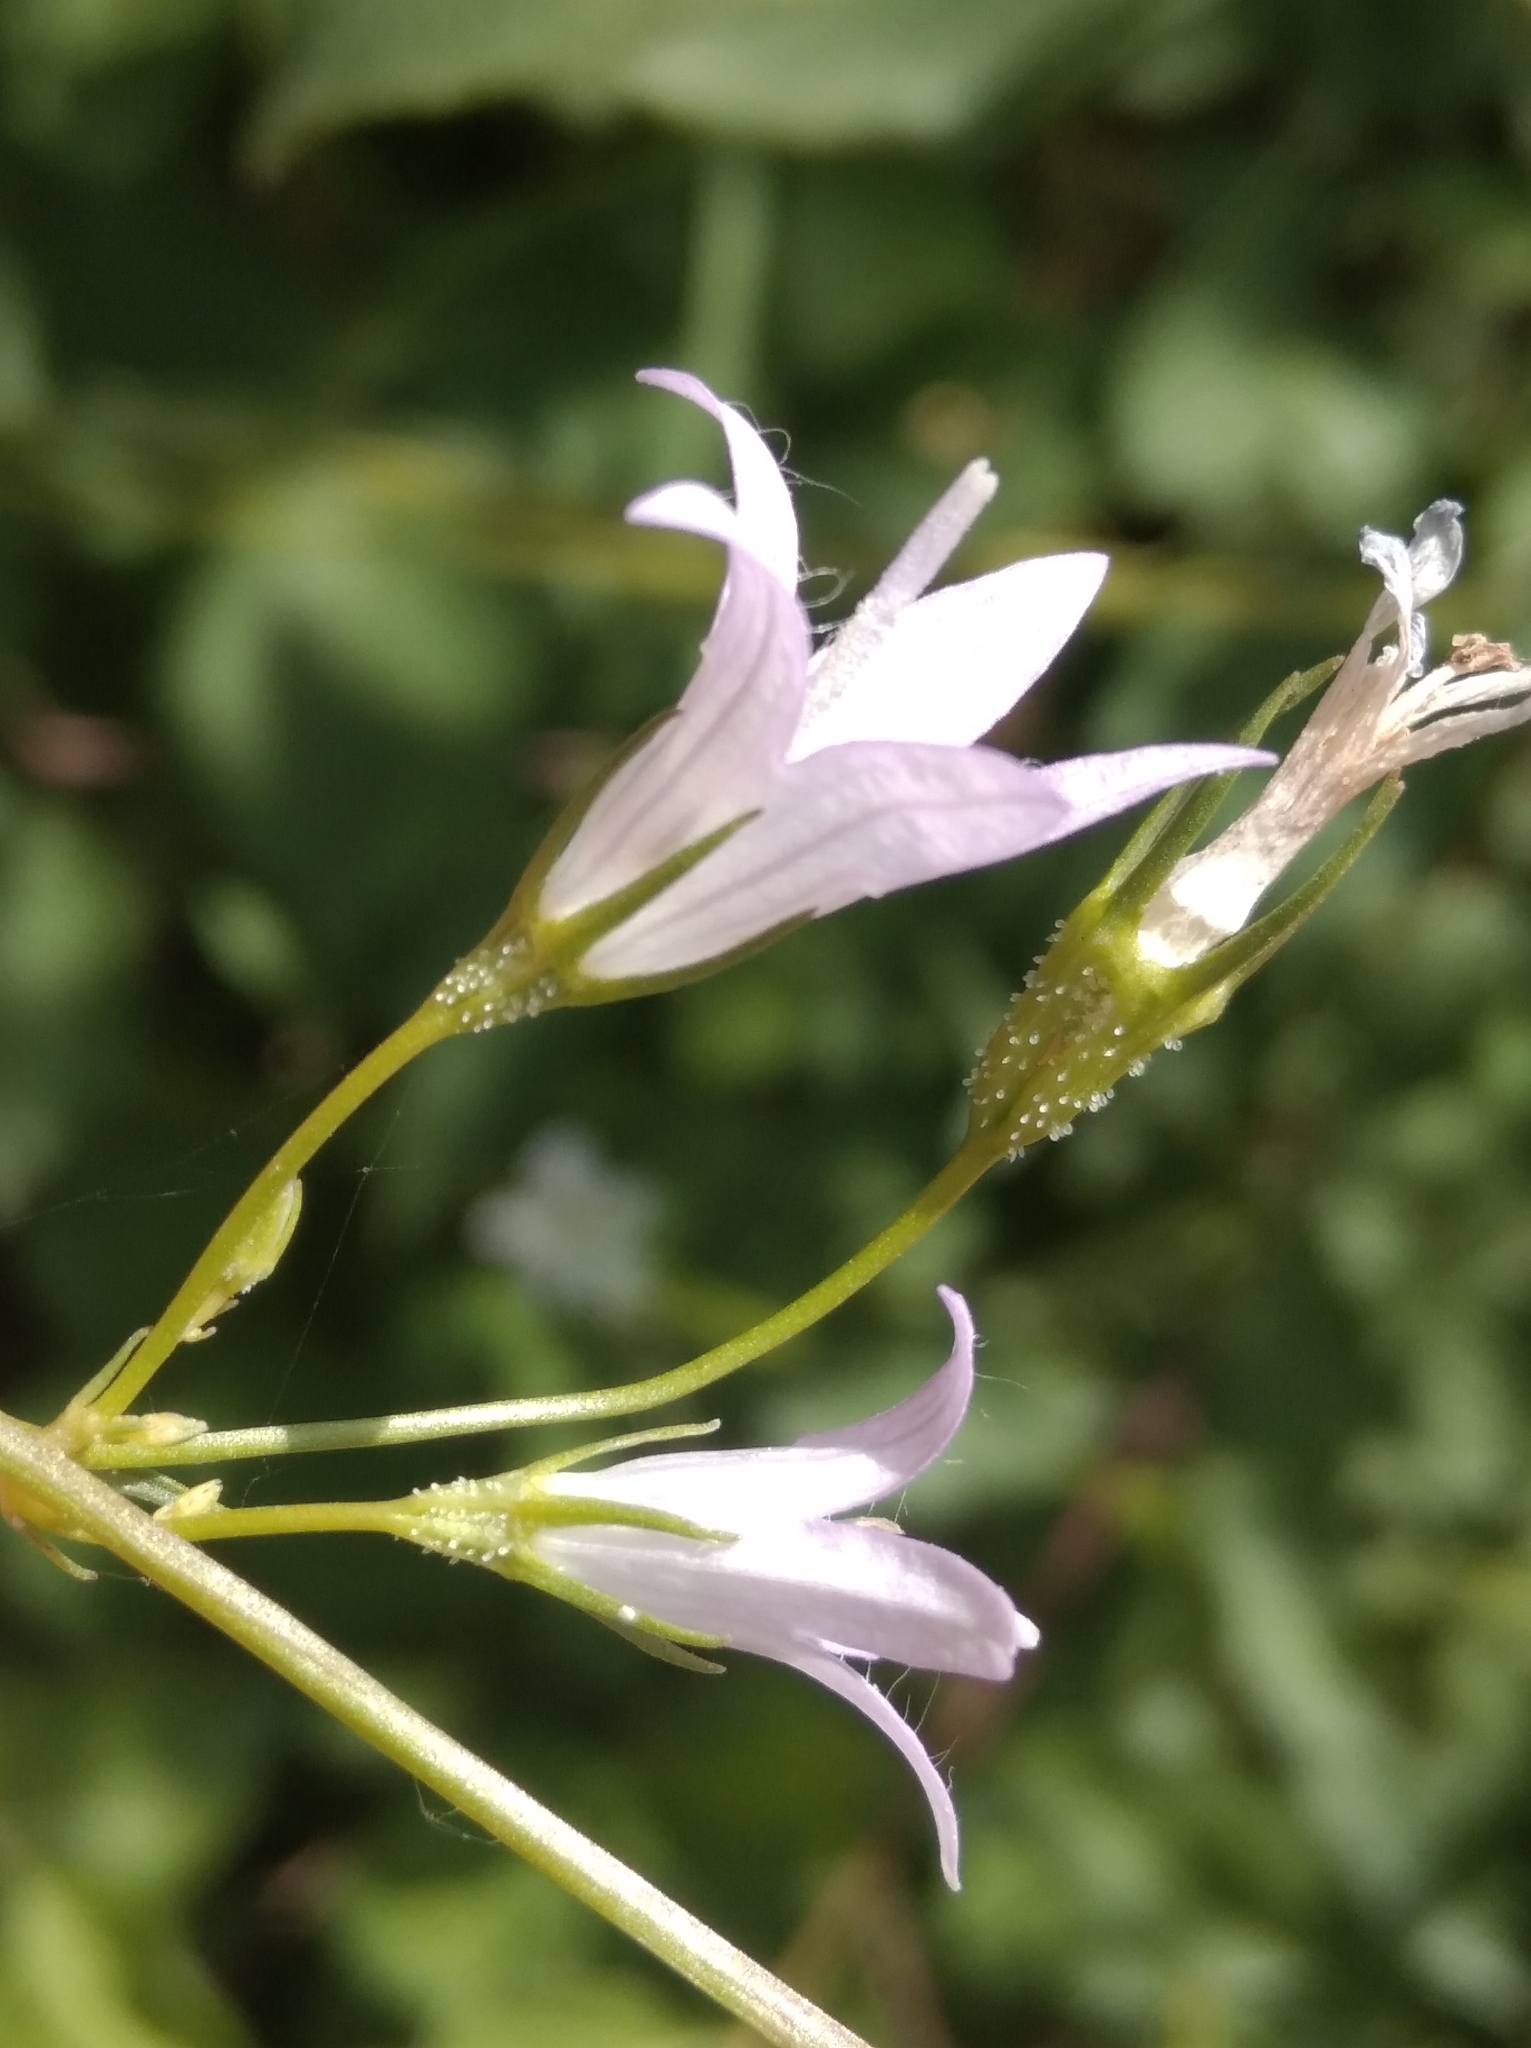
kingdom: Plantae
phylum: Tracheophyta
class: Magnoliopsida
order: Asterales
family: Campanulaceae
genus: Campanula
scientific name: Campanula rapunculus
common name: Rampion bellflower
